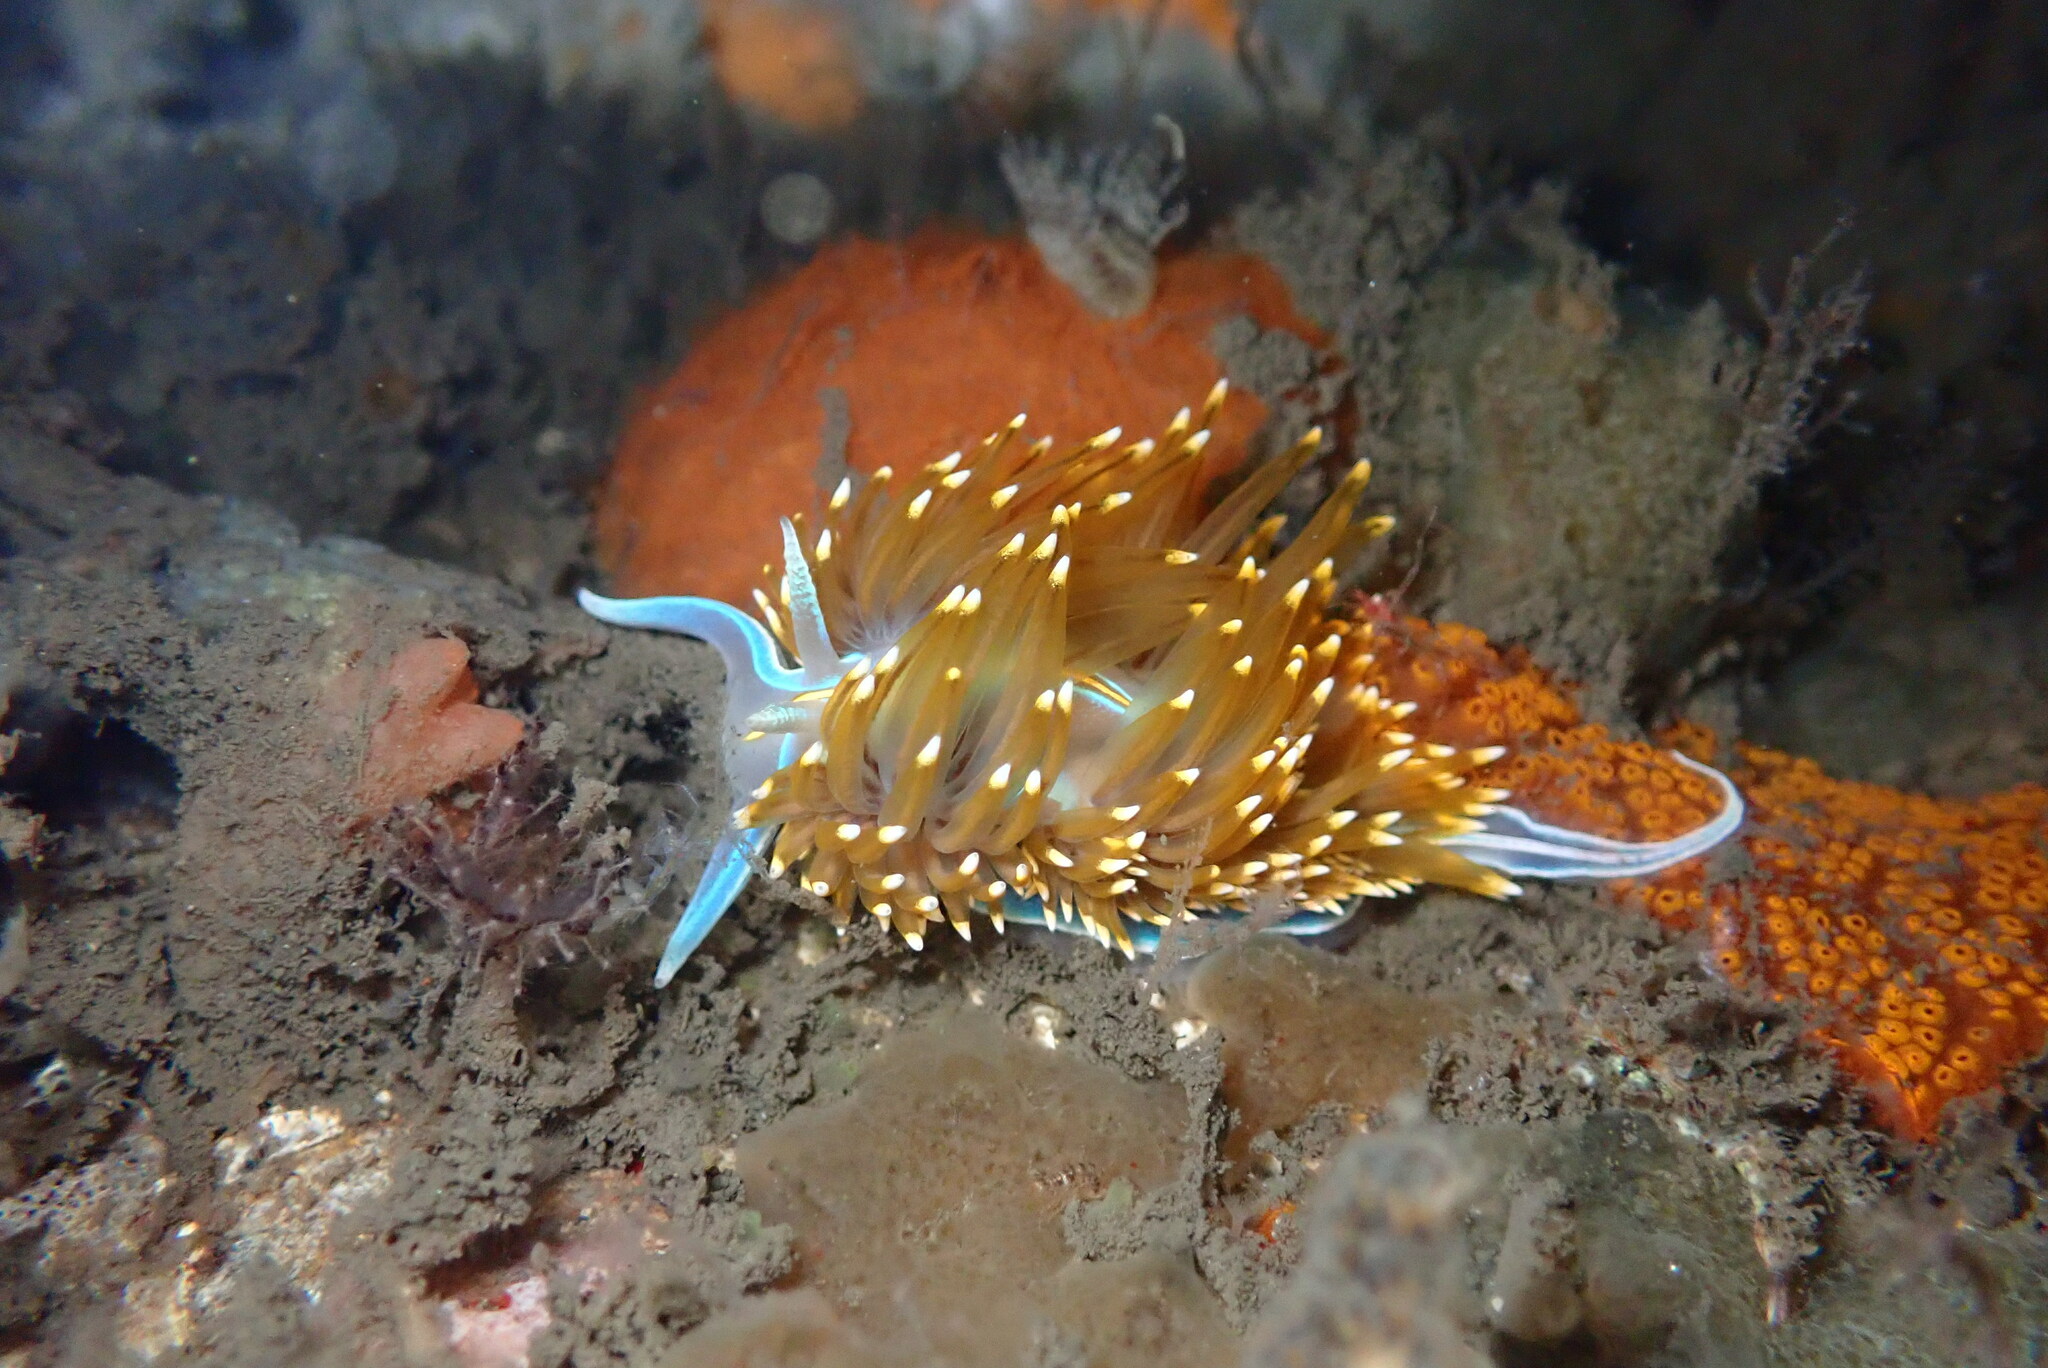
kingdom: Animalia
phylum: Mollusca
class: Gastropoda
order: Nudibranchia
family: Myrrhinidae
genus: Hermissenda
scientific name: Hermissenda opalescens
